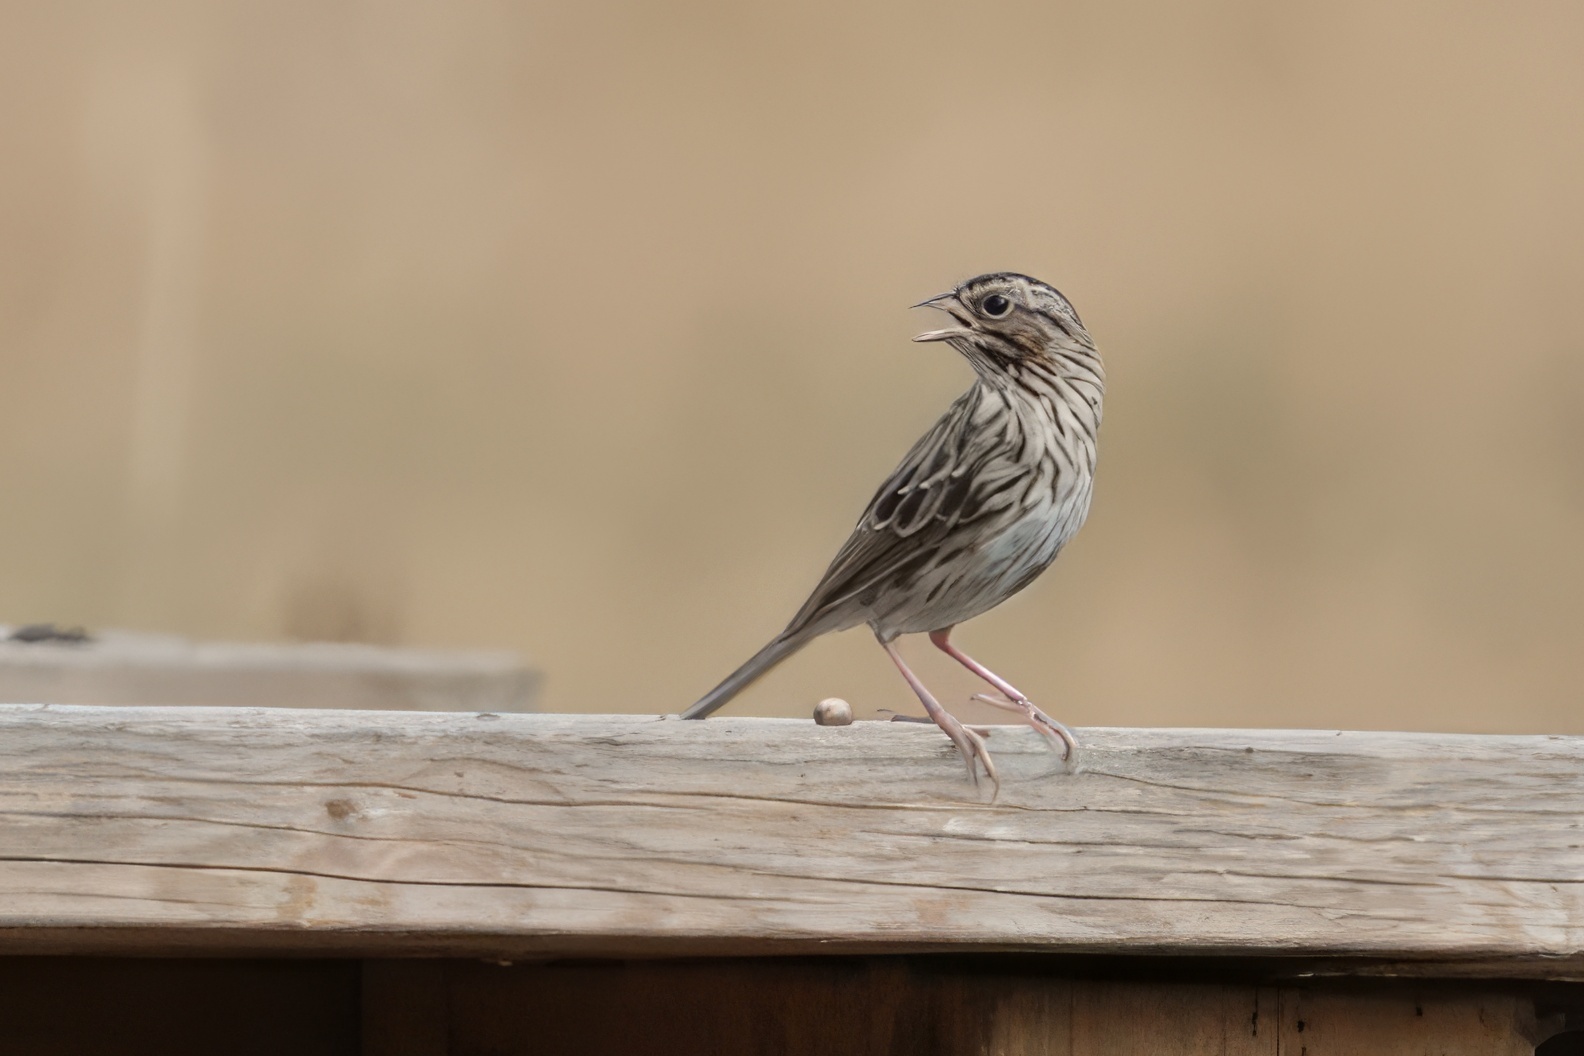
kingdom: Animalia
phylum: Chordata
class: Aves
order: Passeriformes
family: Passerellidae
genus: Passerculus
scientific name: Passerculus sandwichensis
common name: Savannah sparrow
